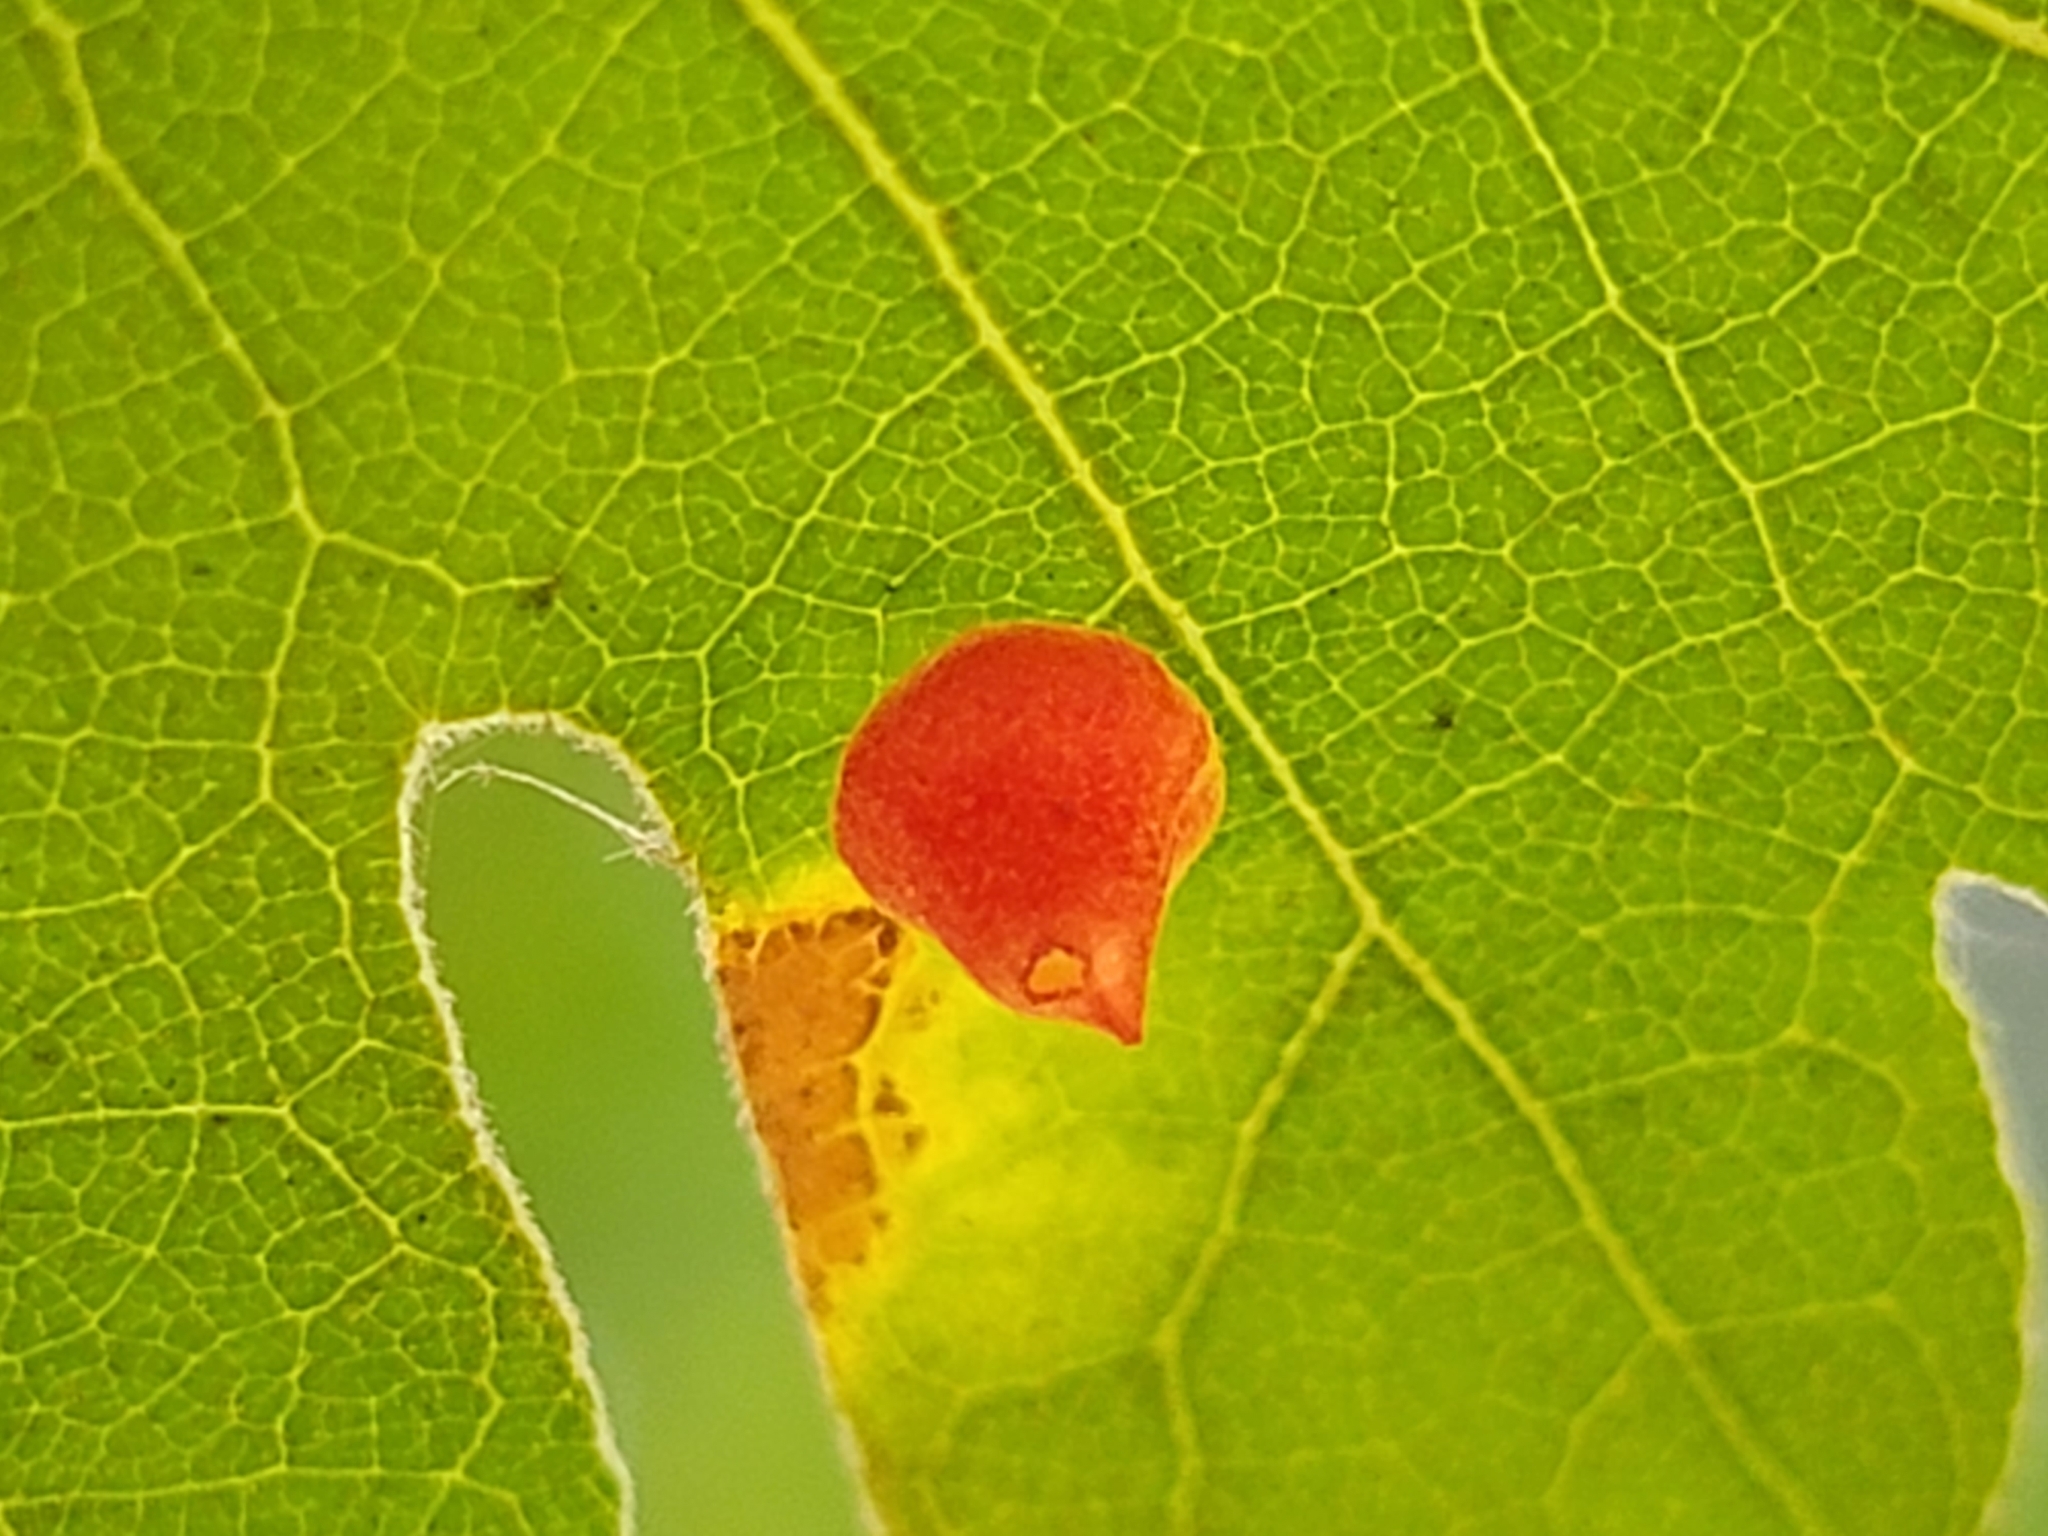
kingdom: Animalia
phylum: Arthropoda
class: Insecta
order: Hymenoptera
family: Cynipidae
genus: Andricus
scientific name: Andricus
